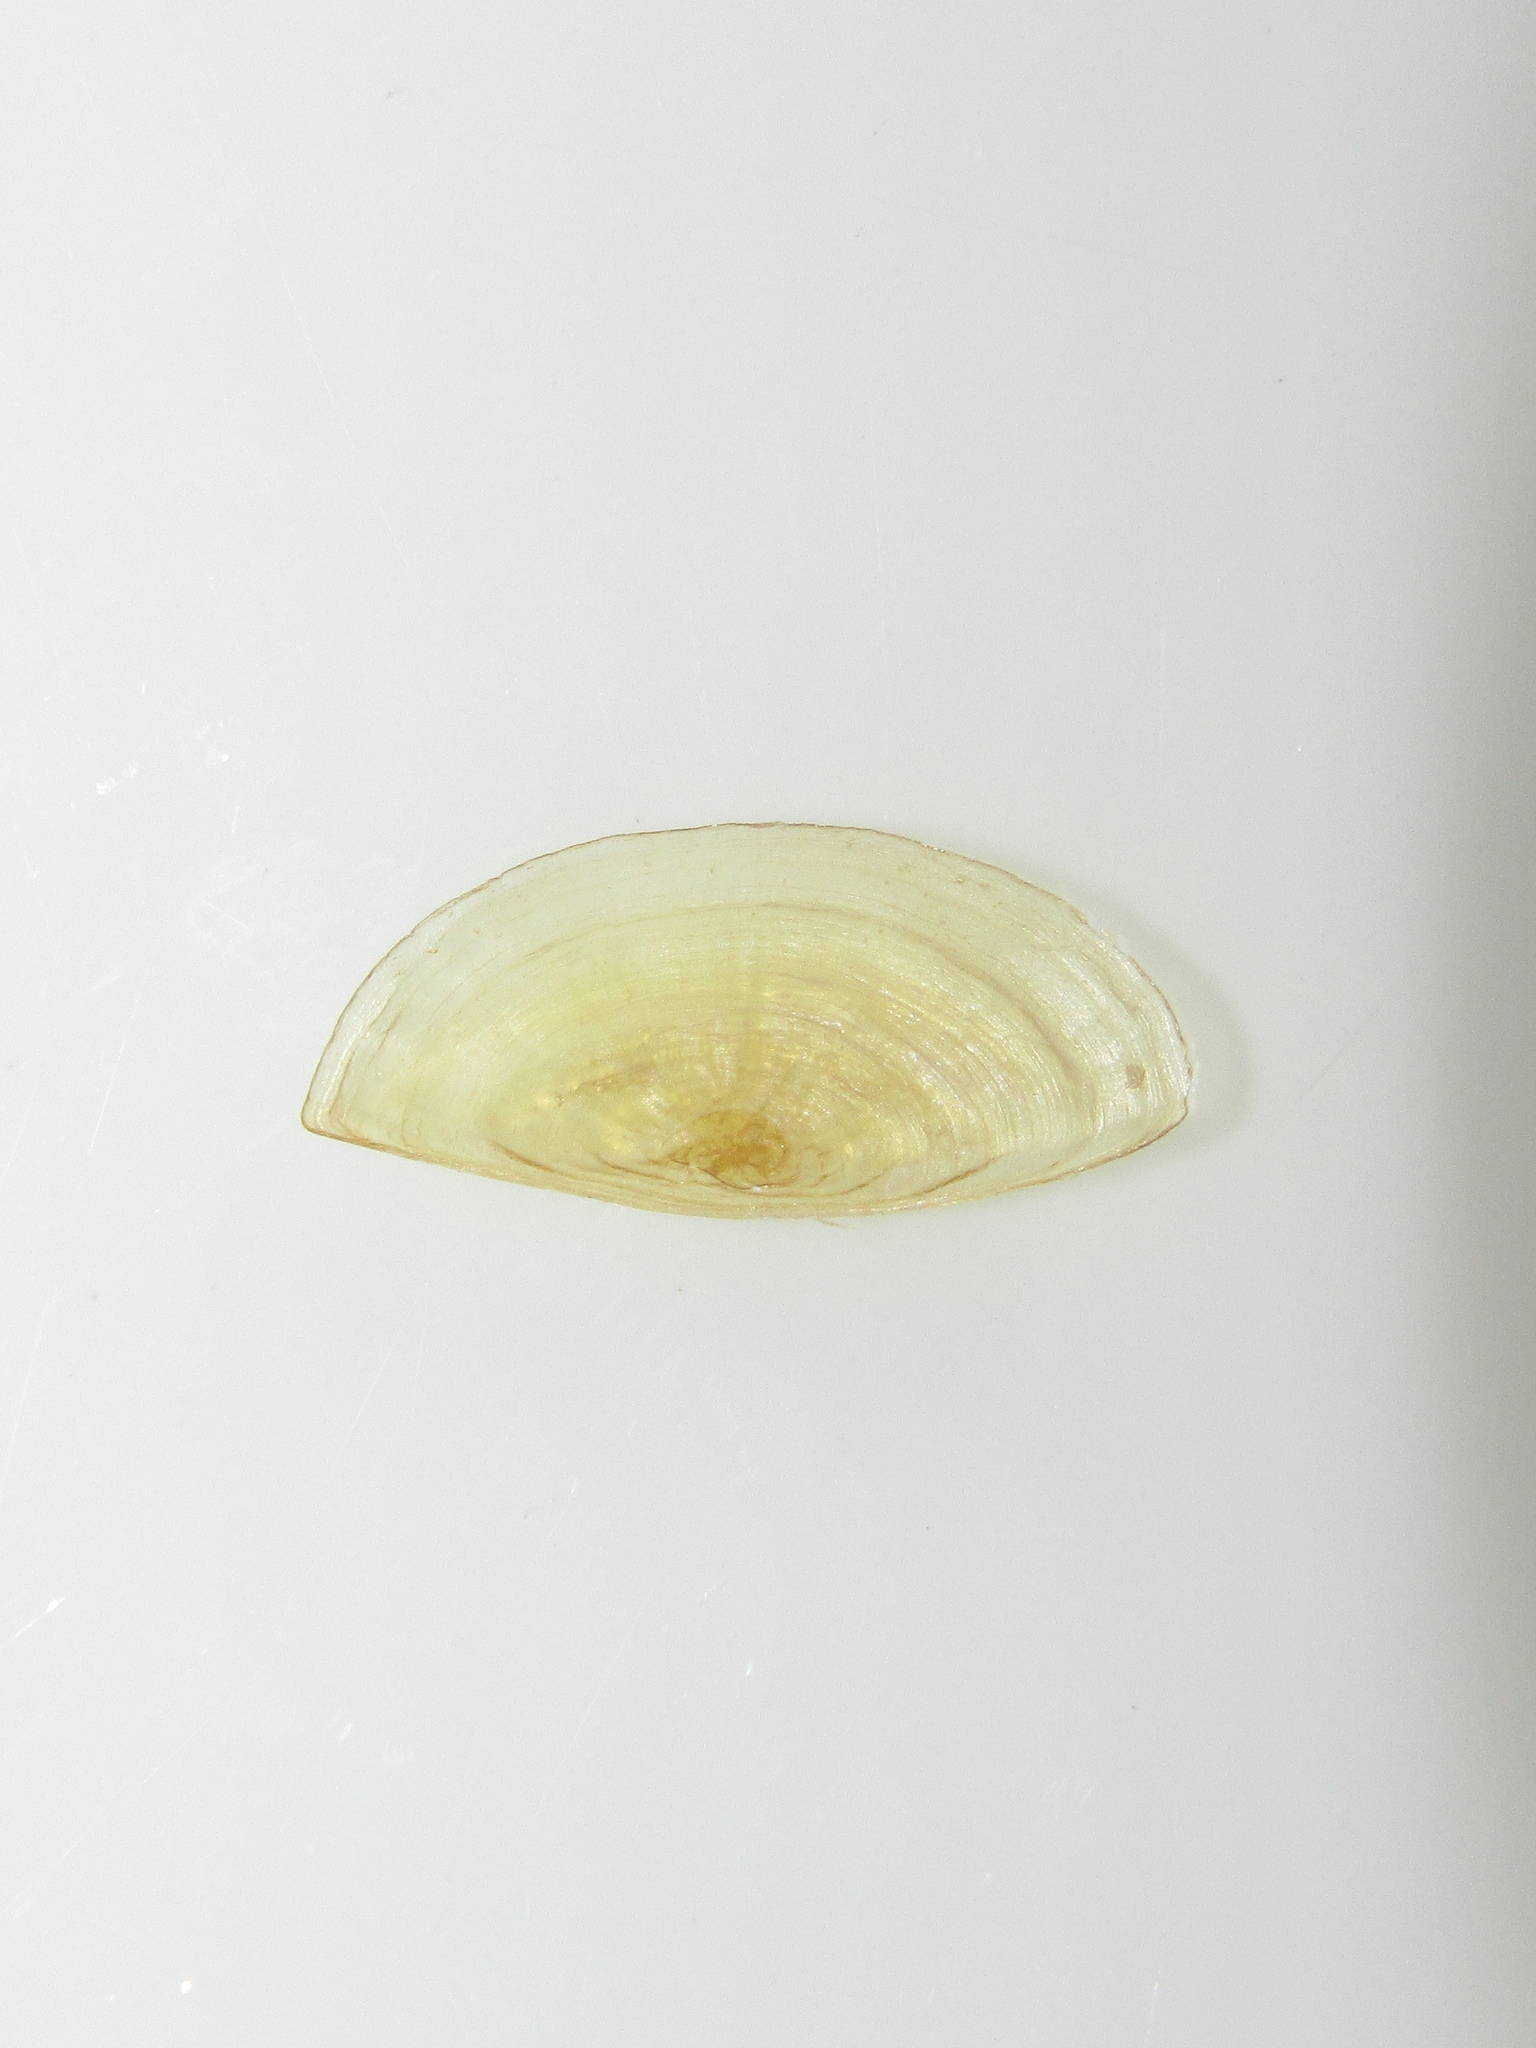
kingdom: Animalia
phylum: Mollusca
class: Gastropoda
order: Littorinimorpha
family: Cassidae
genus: Semicassis
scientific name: Semicassis labiata
